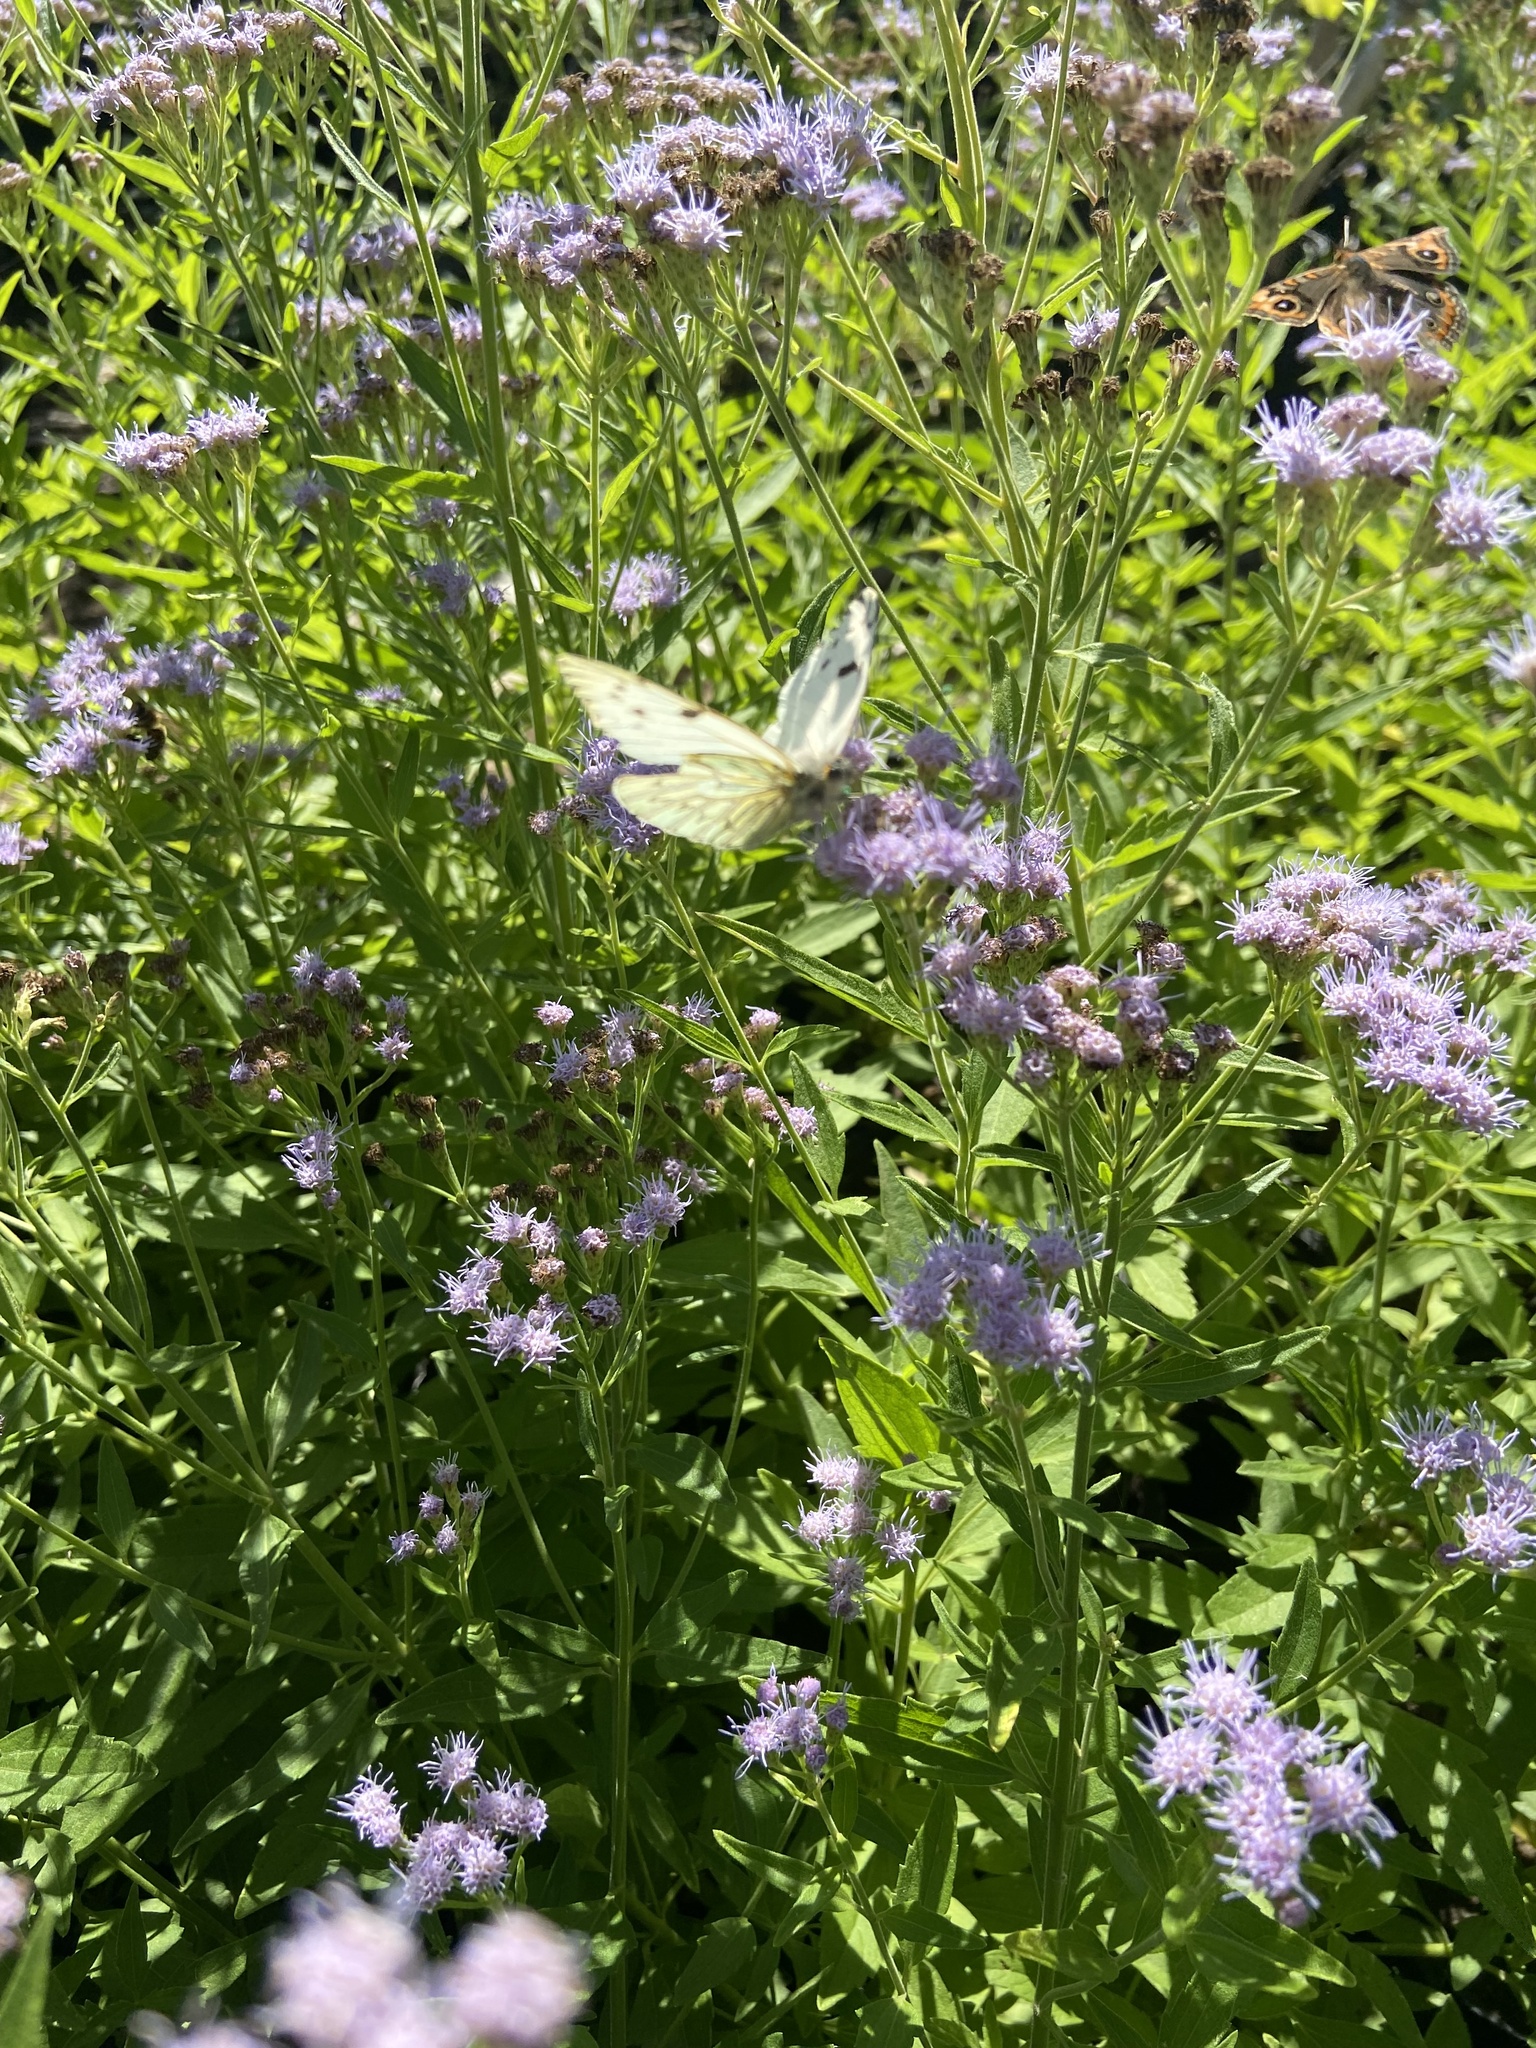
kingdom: Animalia
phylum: Arthropoda
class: Insecta
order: Lepidoptera
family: Pieridae
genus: Tatochila
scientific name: Tatochila autodice
